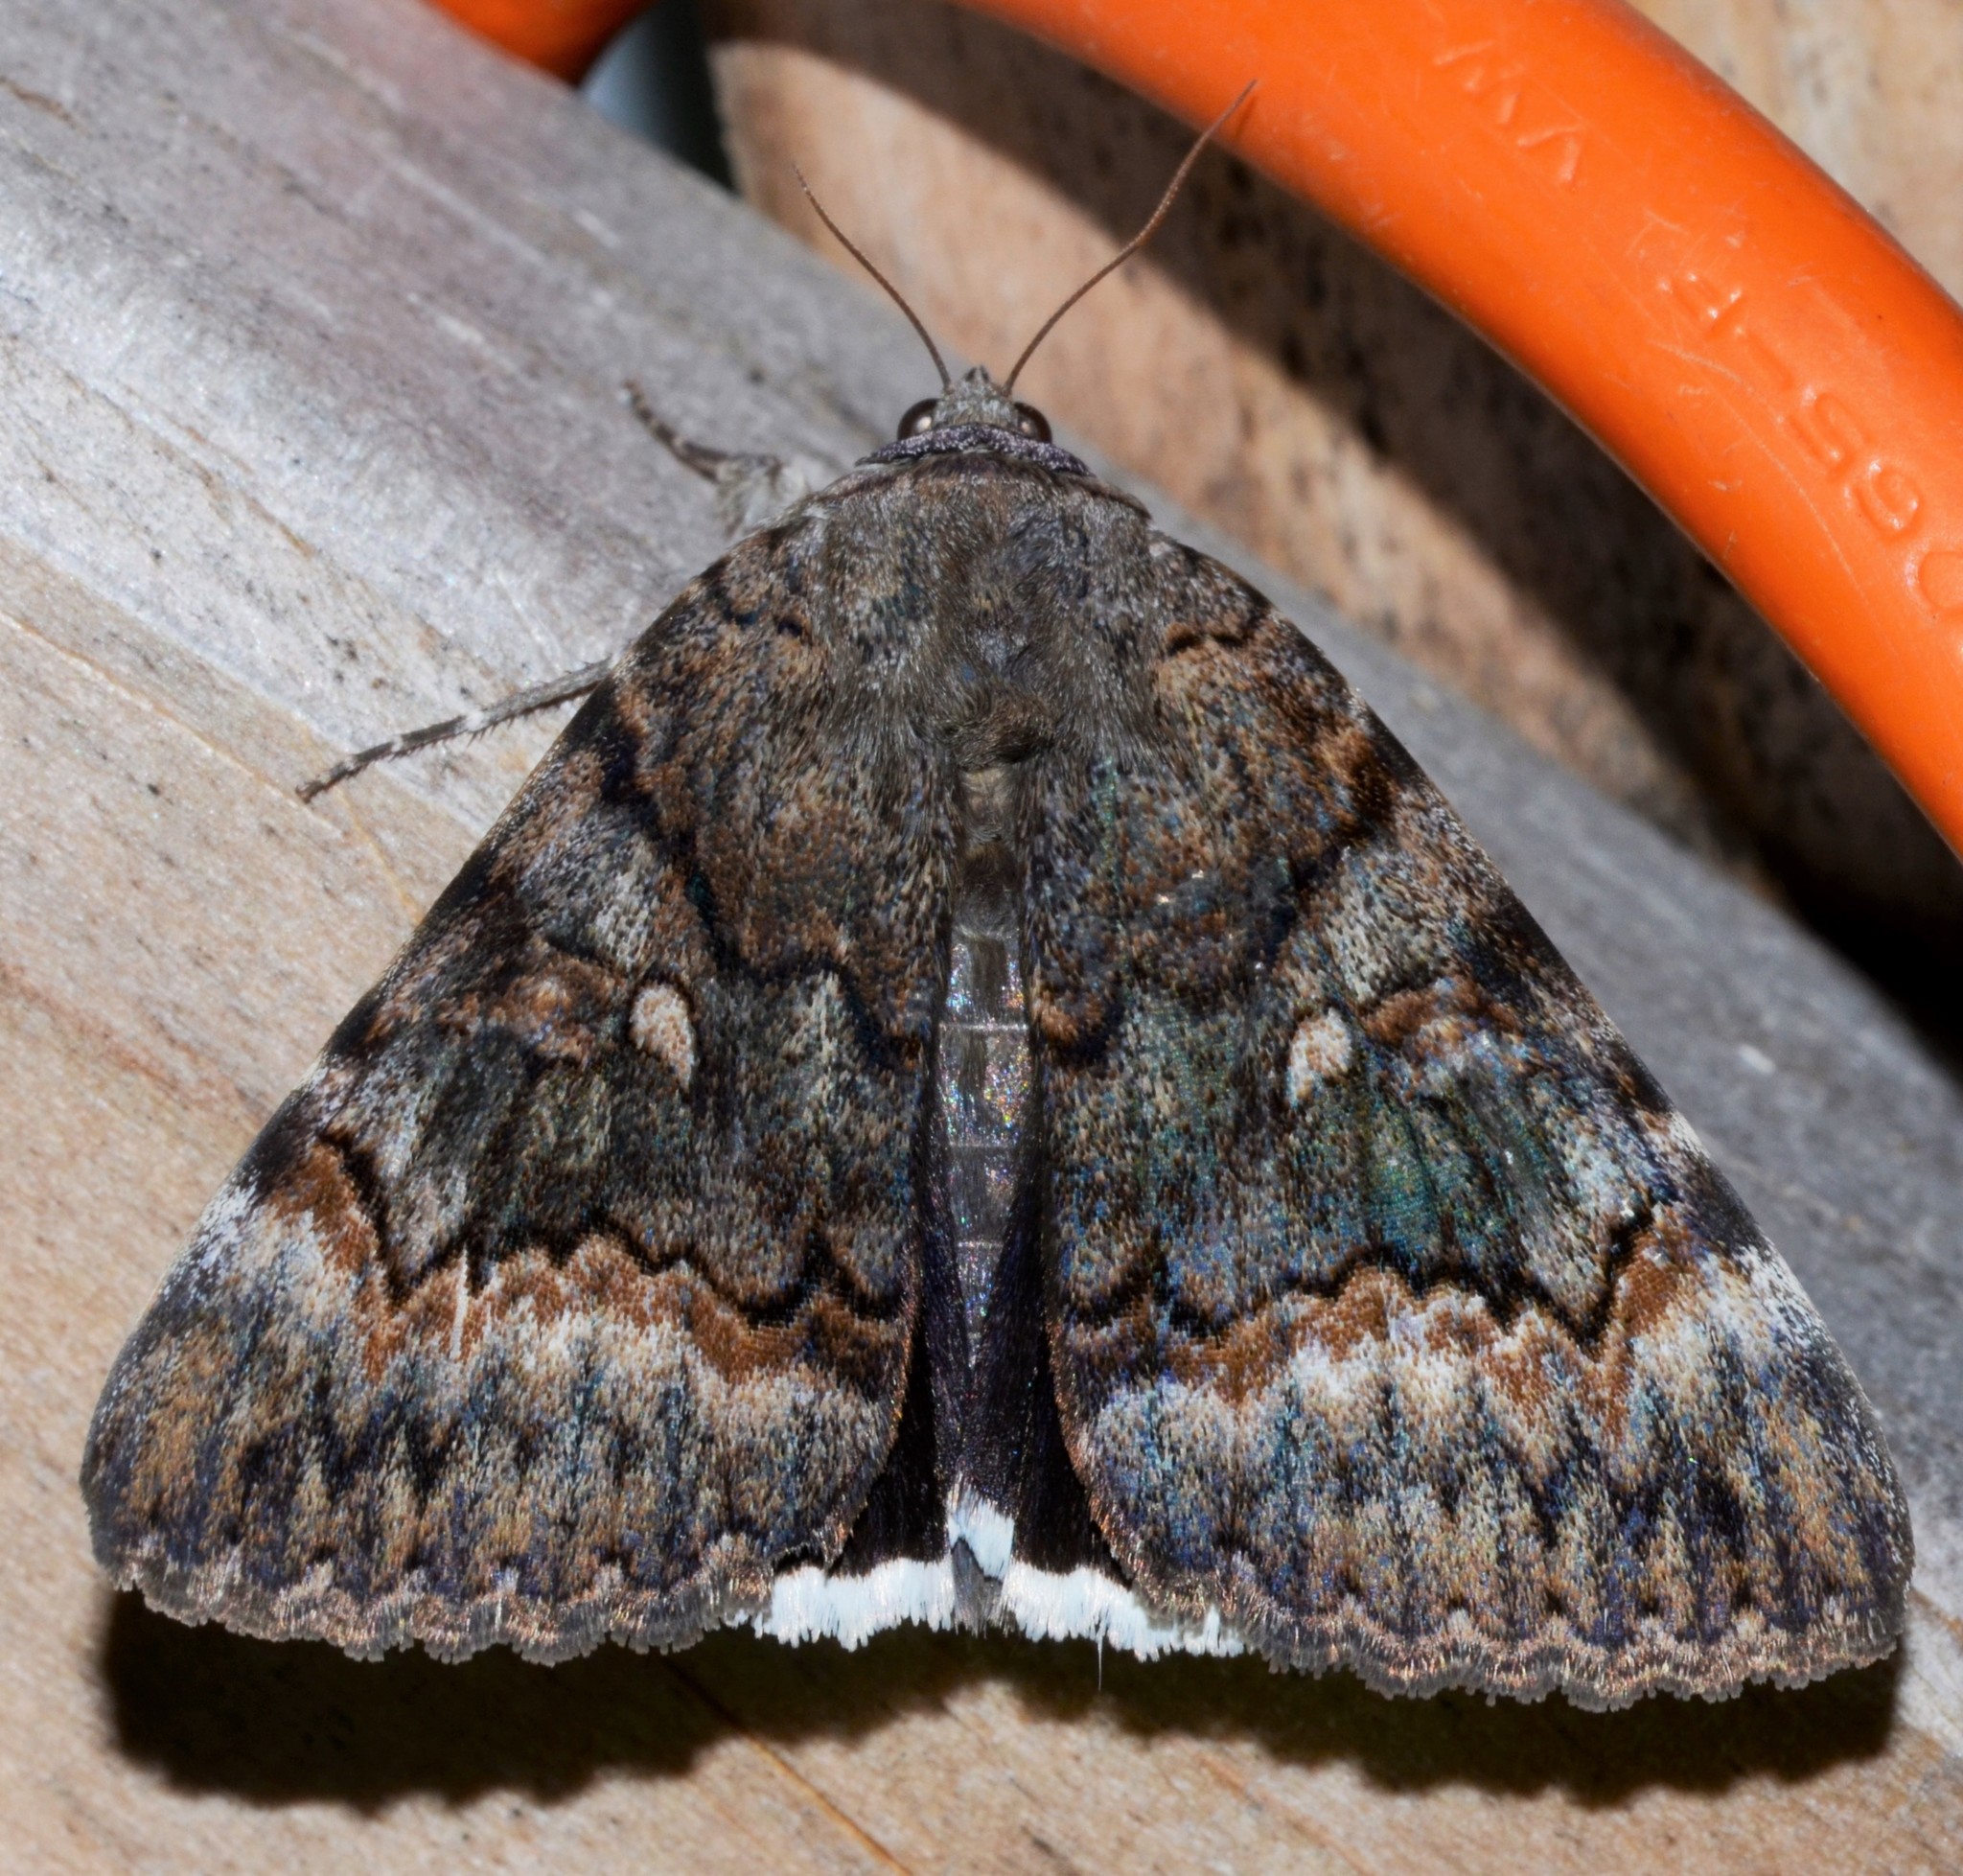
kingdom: Animalia
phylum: Arthropoda
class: Insecta
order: Lepidoptera
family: Erebidae
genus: Catocala
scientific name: Catocala epione
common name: Epione underwing
